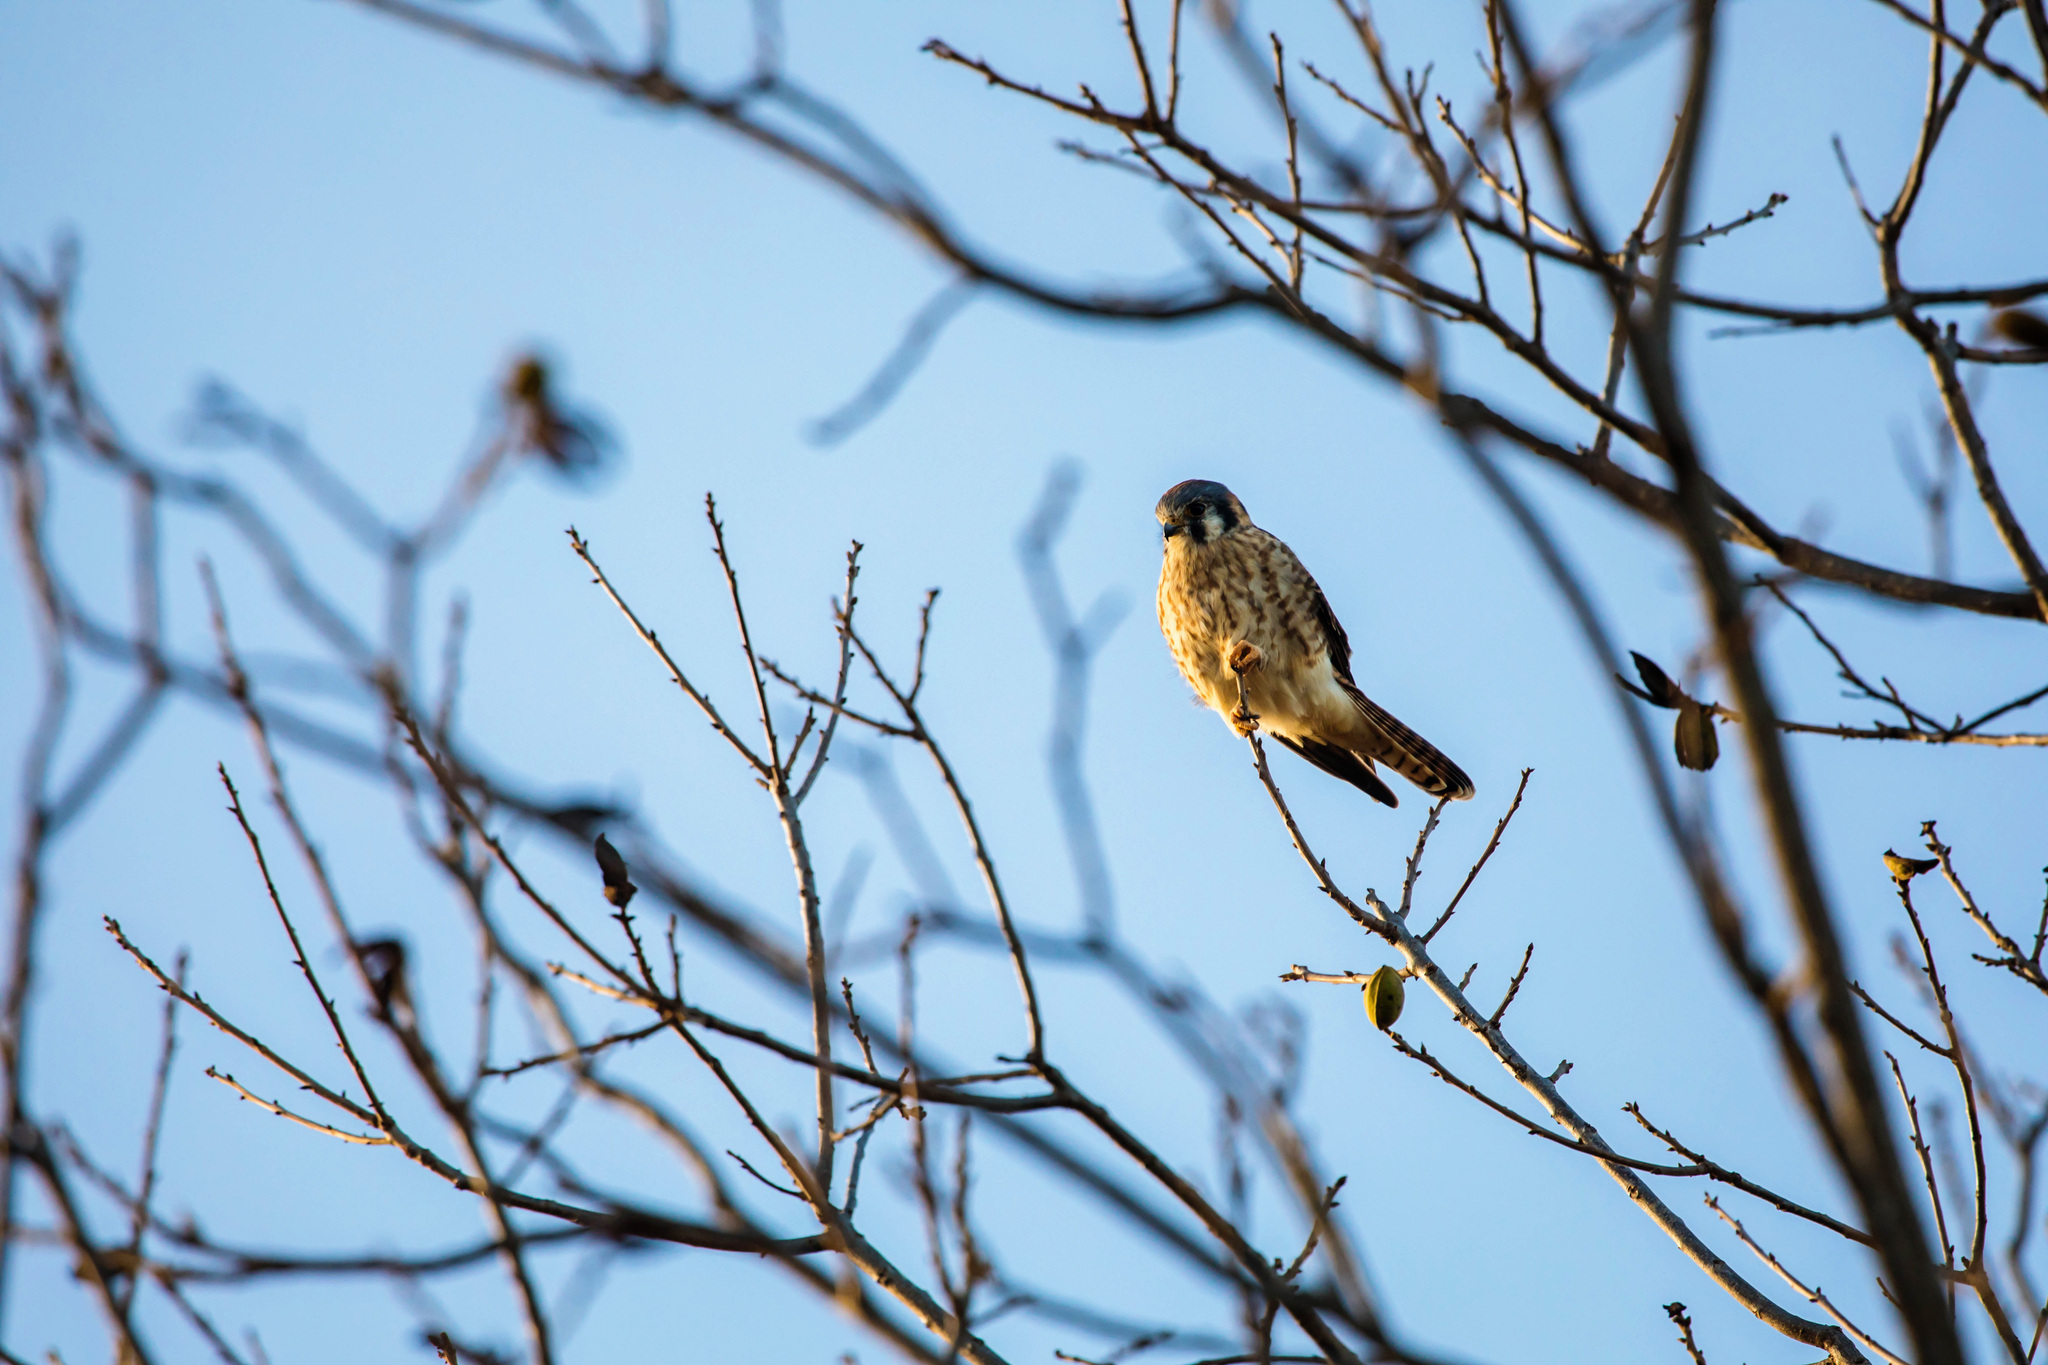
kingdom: Animalia
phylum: Chordata
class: Aves
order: Falconiformes
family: Falconidae
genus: Falco
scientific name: Falco sparverius
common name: American kestrel
